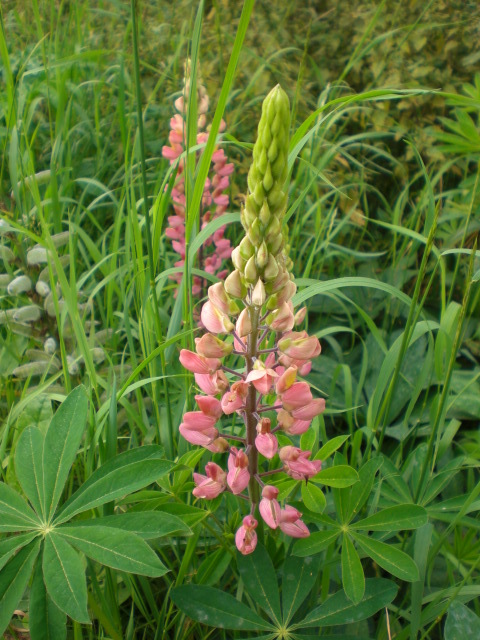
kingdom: Plantae
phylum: Tracheophyta
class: Magnoliopsida
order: Fabales
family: Fabaceae
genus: Lupinus
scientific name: Lupinus polyphyllus
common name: Garden lupin
